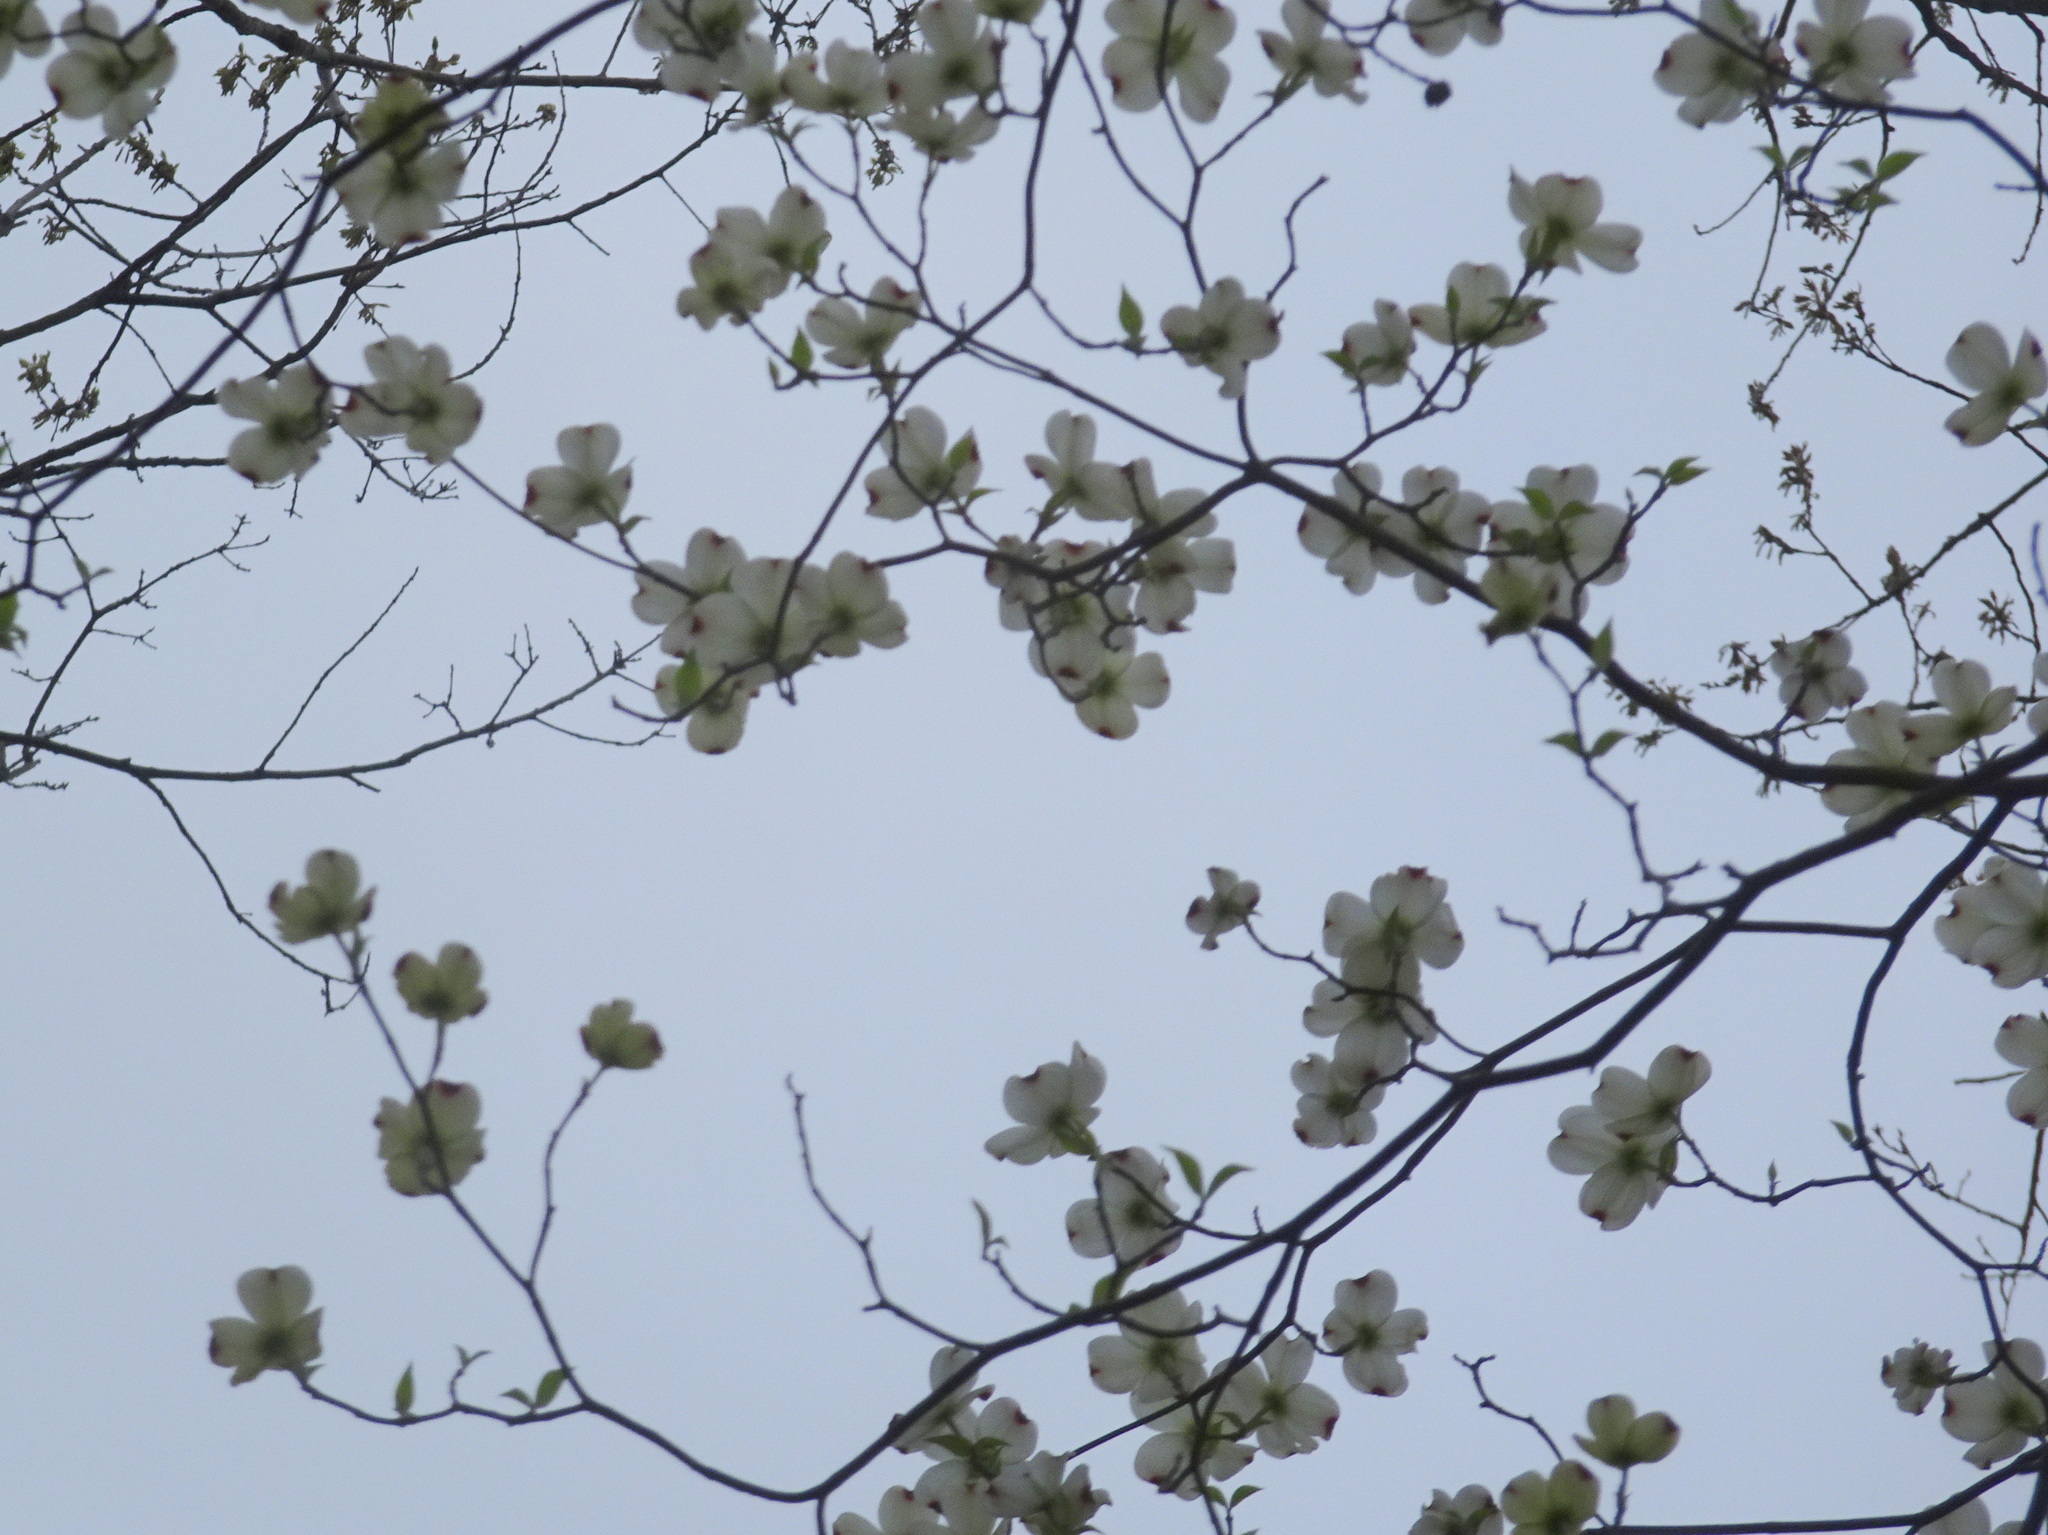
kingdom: Plantae
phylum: Tracheophyta
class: Magnoliopsida
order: Cornales
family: Cornaceae
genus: Cornus
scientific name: Cornus florida
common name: Flowering dogwood
